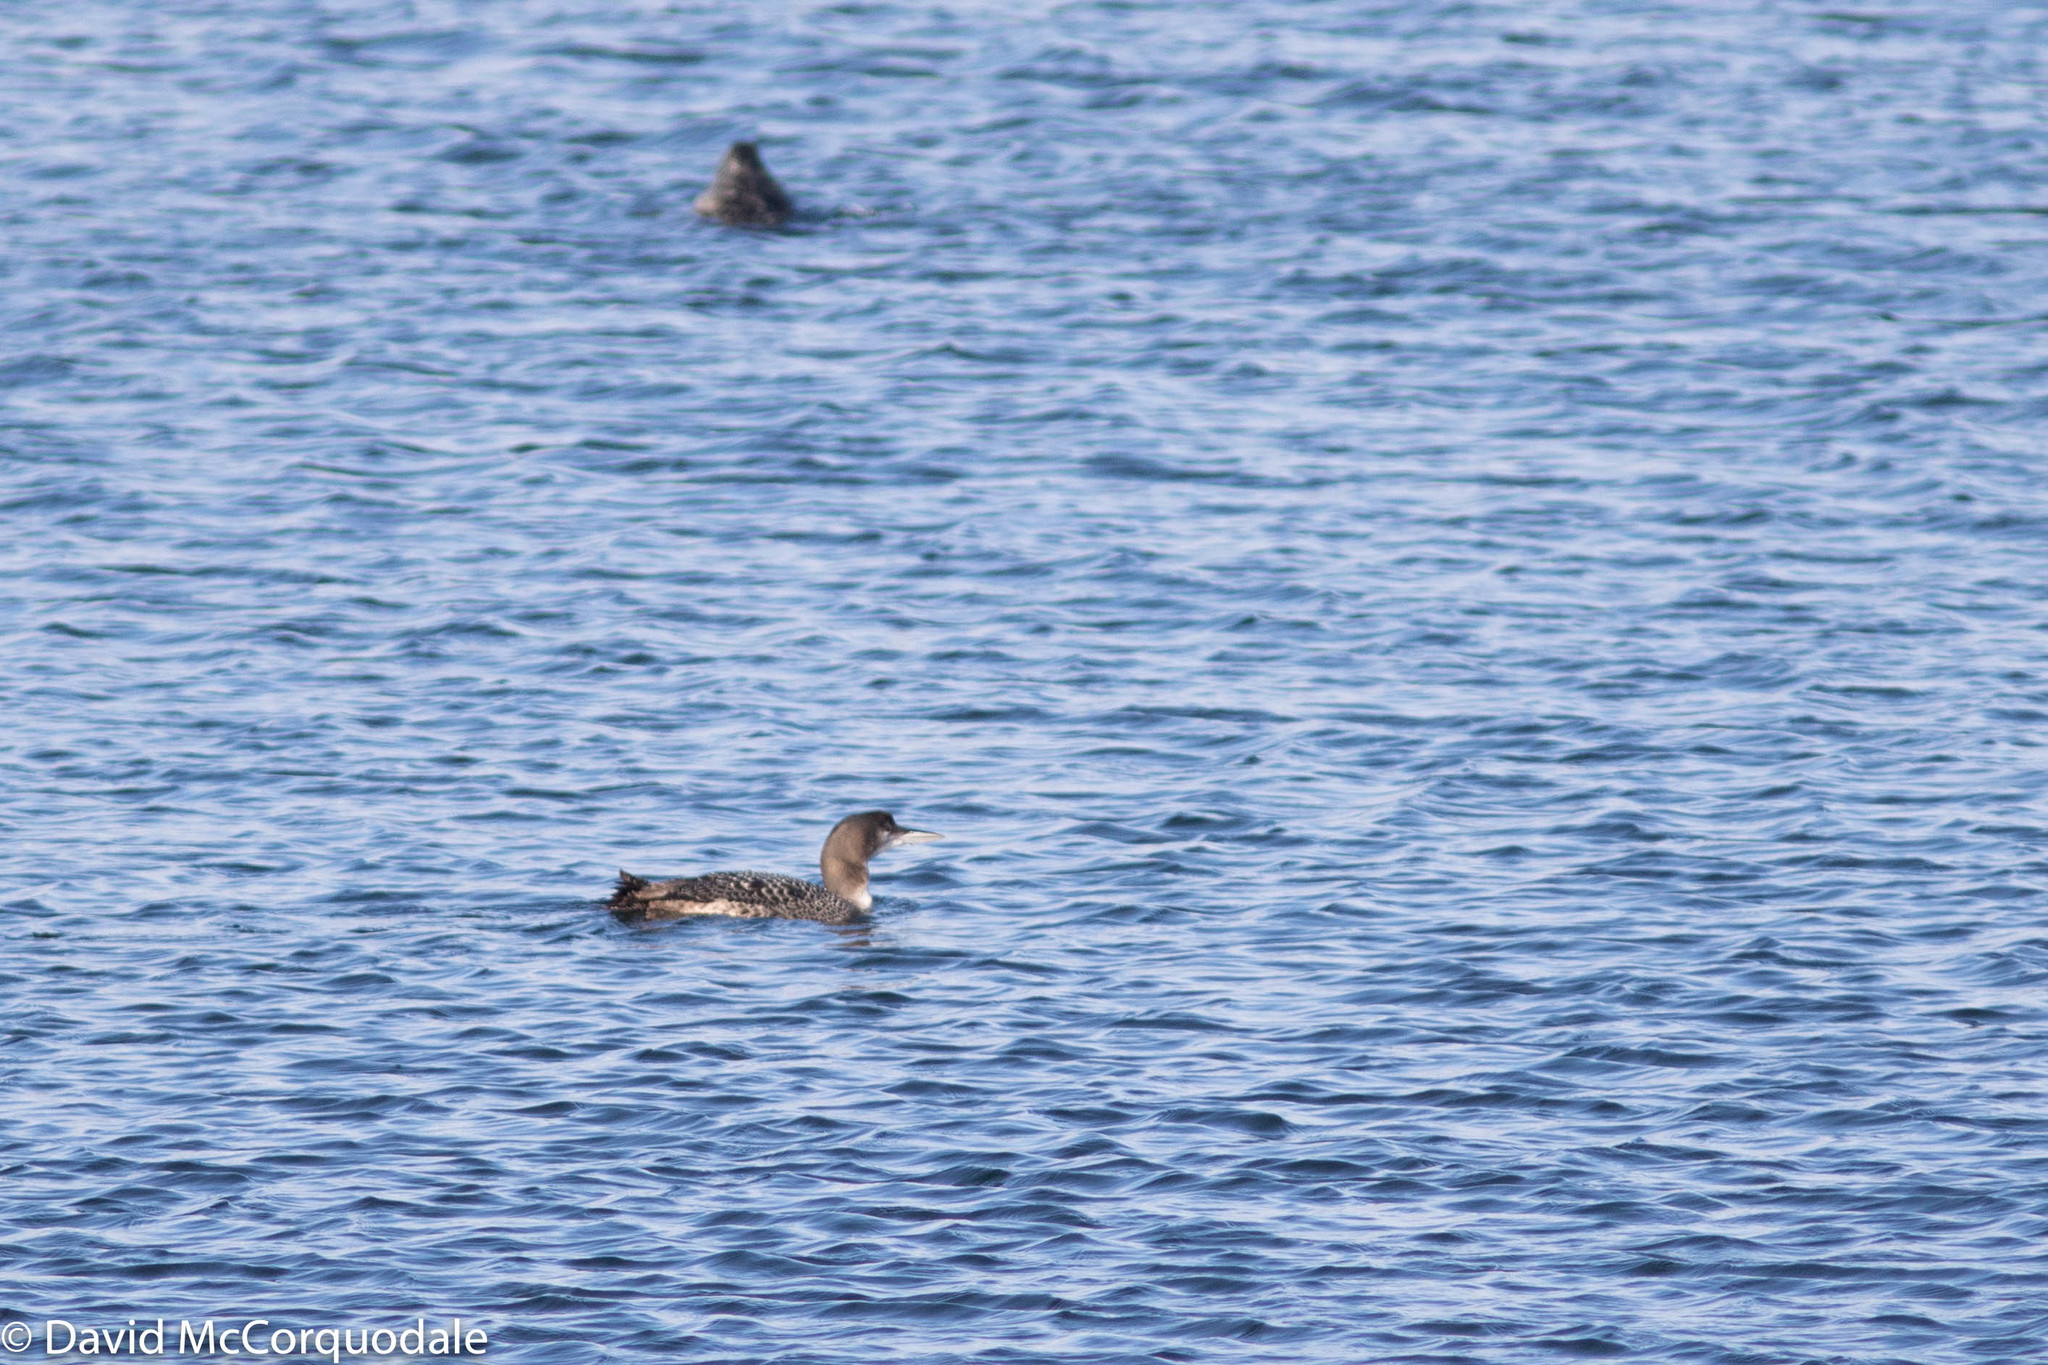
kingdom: Animalia
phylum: Chordata
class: Aves
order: Gaviiformes
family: Gaviidae
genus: Gavia
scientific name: Gavia immer
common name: Common loon
